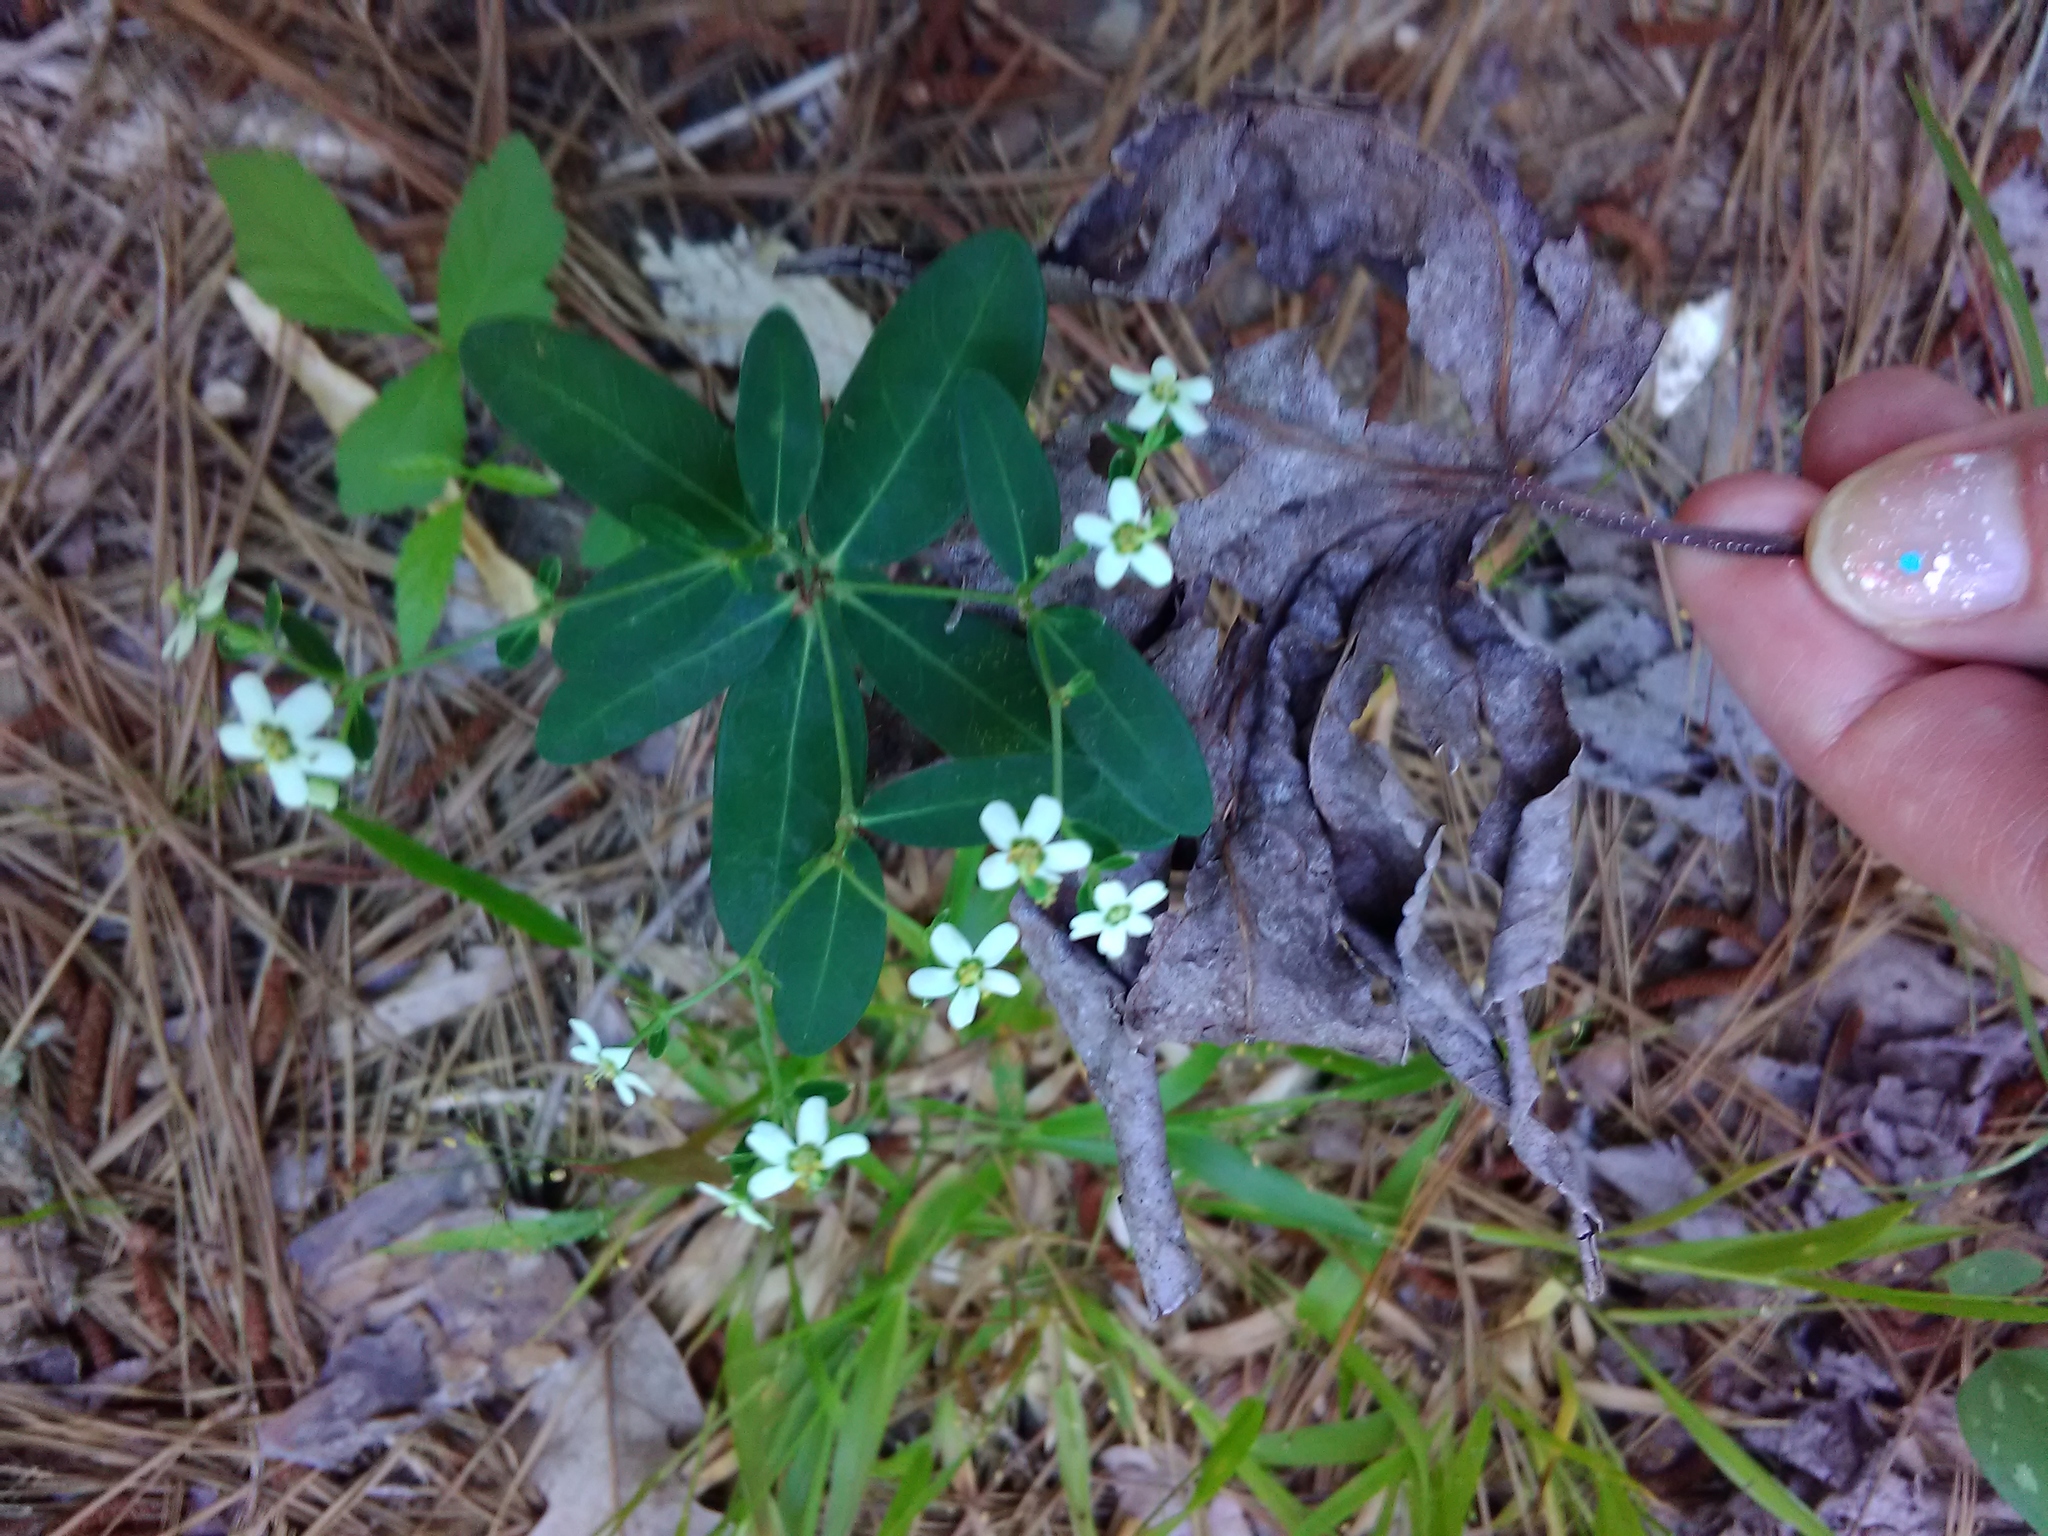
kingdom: Plantae
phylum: Tracheophyta
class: Magnoliopsida
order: Malpighiales
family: Euphorbiaceae
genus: Euphorbia
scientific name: Euphorbia corollata
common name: Flowering spurge
